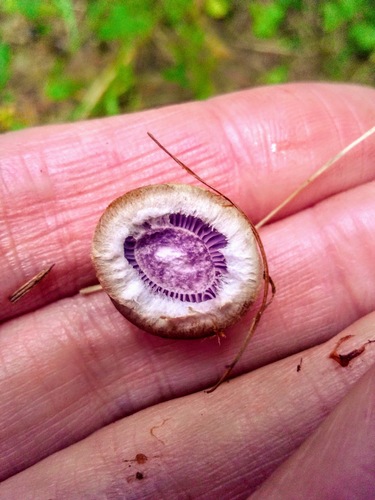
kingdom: Fungi
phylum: Basidiomycota
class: Agaricomycetes
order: Agaricales
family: Cortinariaceae
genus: Cortinarius
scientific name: Cortinarius
